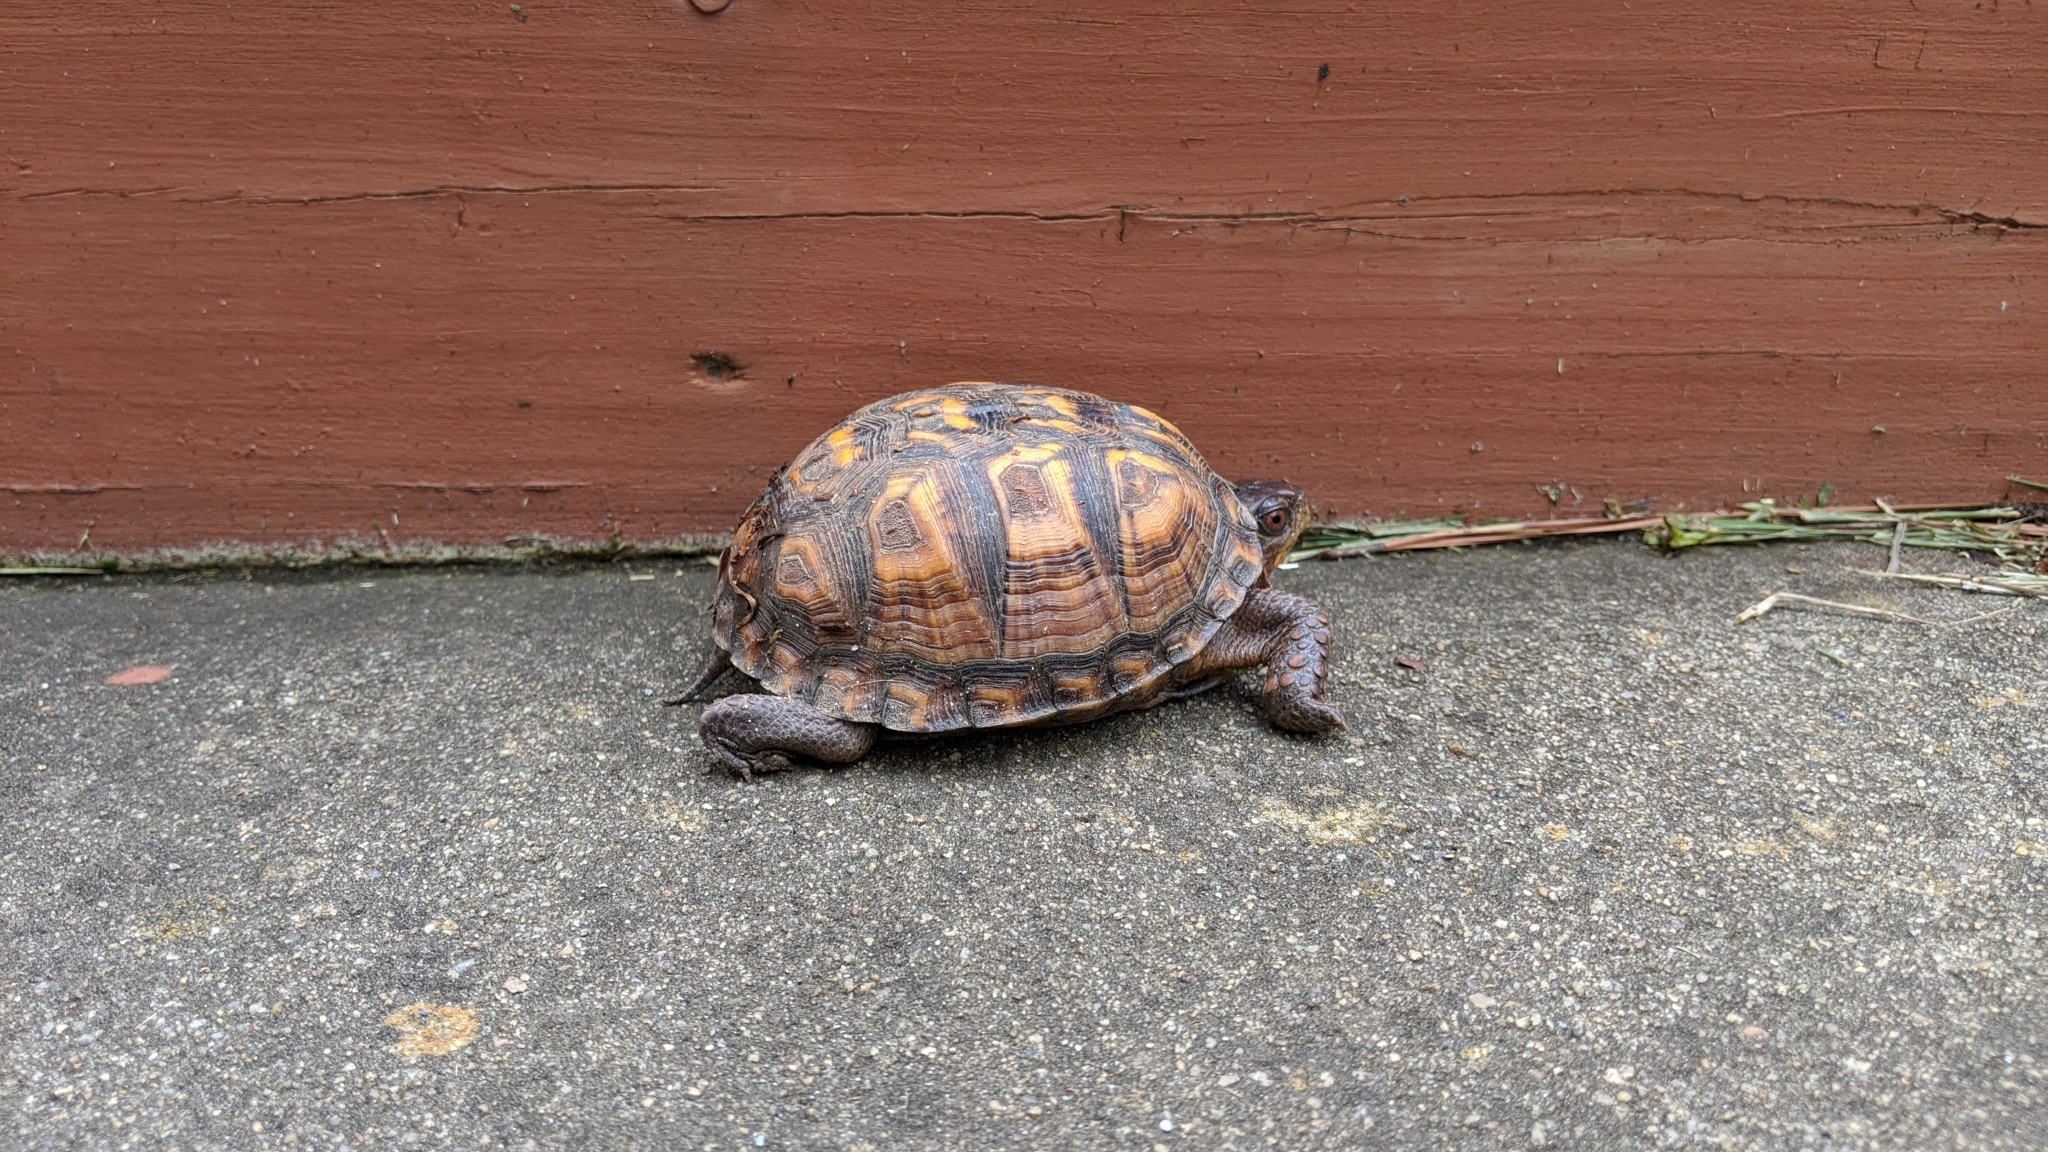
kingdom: Animalia
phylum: Chordata
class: Testudines
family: Emydidae
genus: Terrapene
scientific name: Terrapene carolina
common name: Common box turtle
